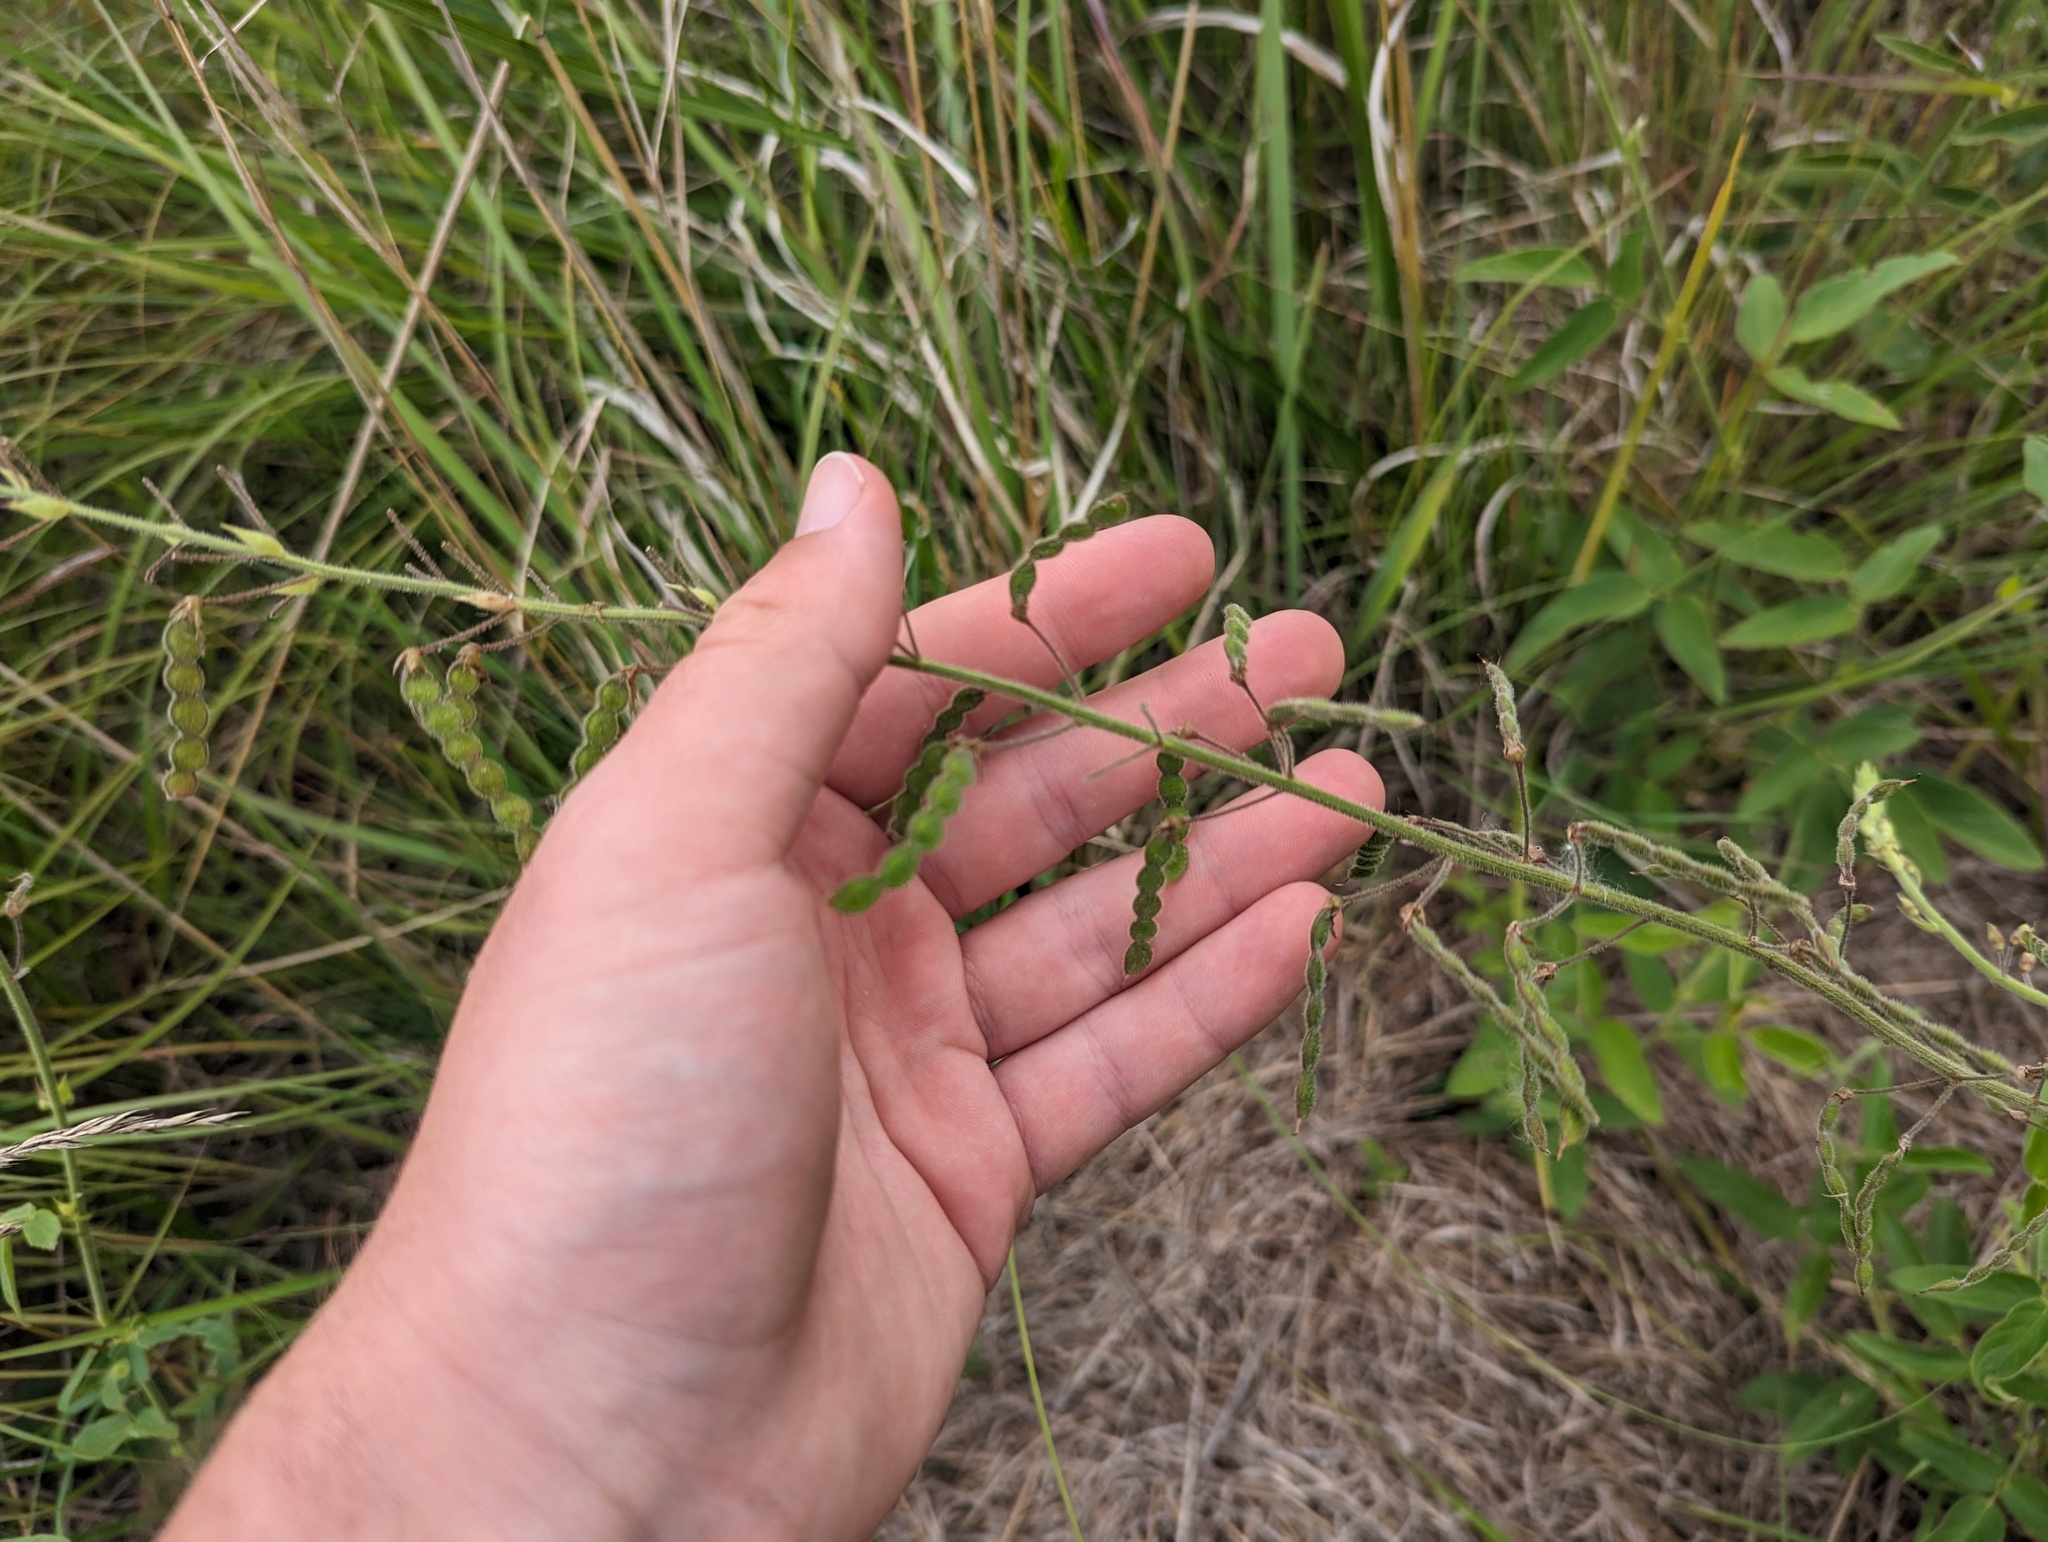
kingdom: Plantae
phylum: Tracheophyta
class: Magnoliopsida
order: Fabales
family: Fabaceae
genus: Desmodium
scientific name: Desmodium illinoense
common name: Illinois tick-clover
